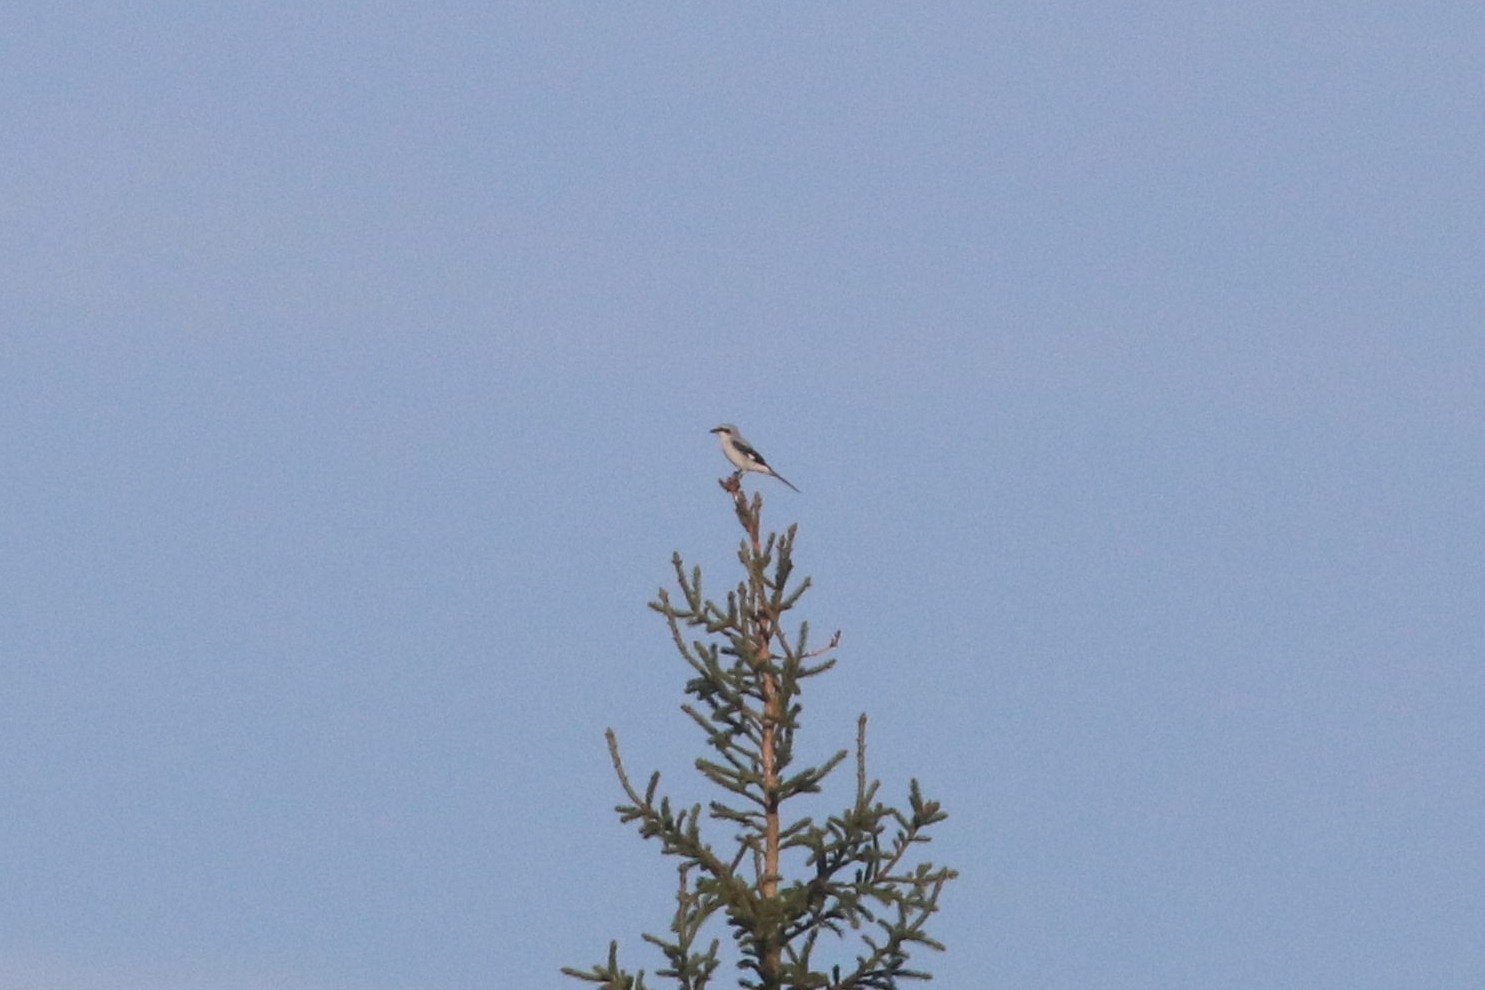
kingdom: Animalia
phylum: Chordata
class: Aves
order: Passeriformes
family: Laniidae
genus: Lanius
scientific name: Lanius excubitor
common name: Great grey shrike
